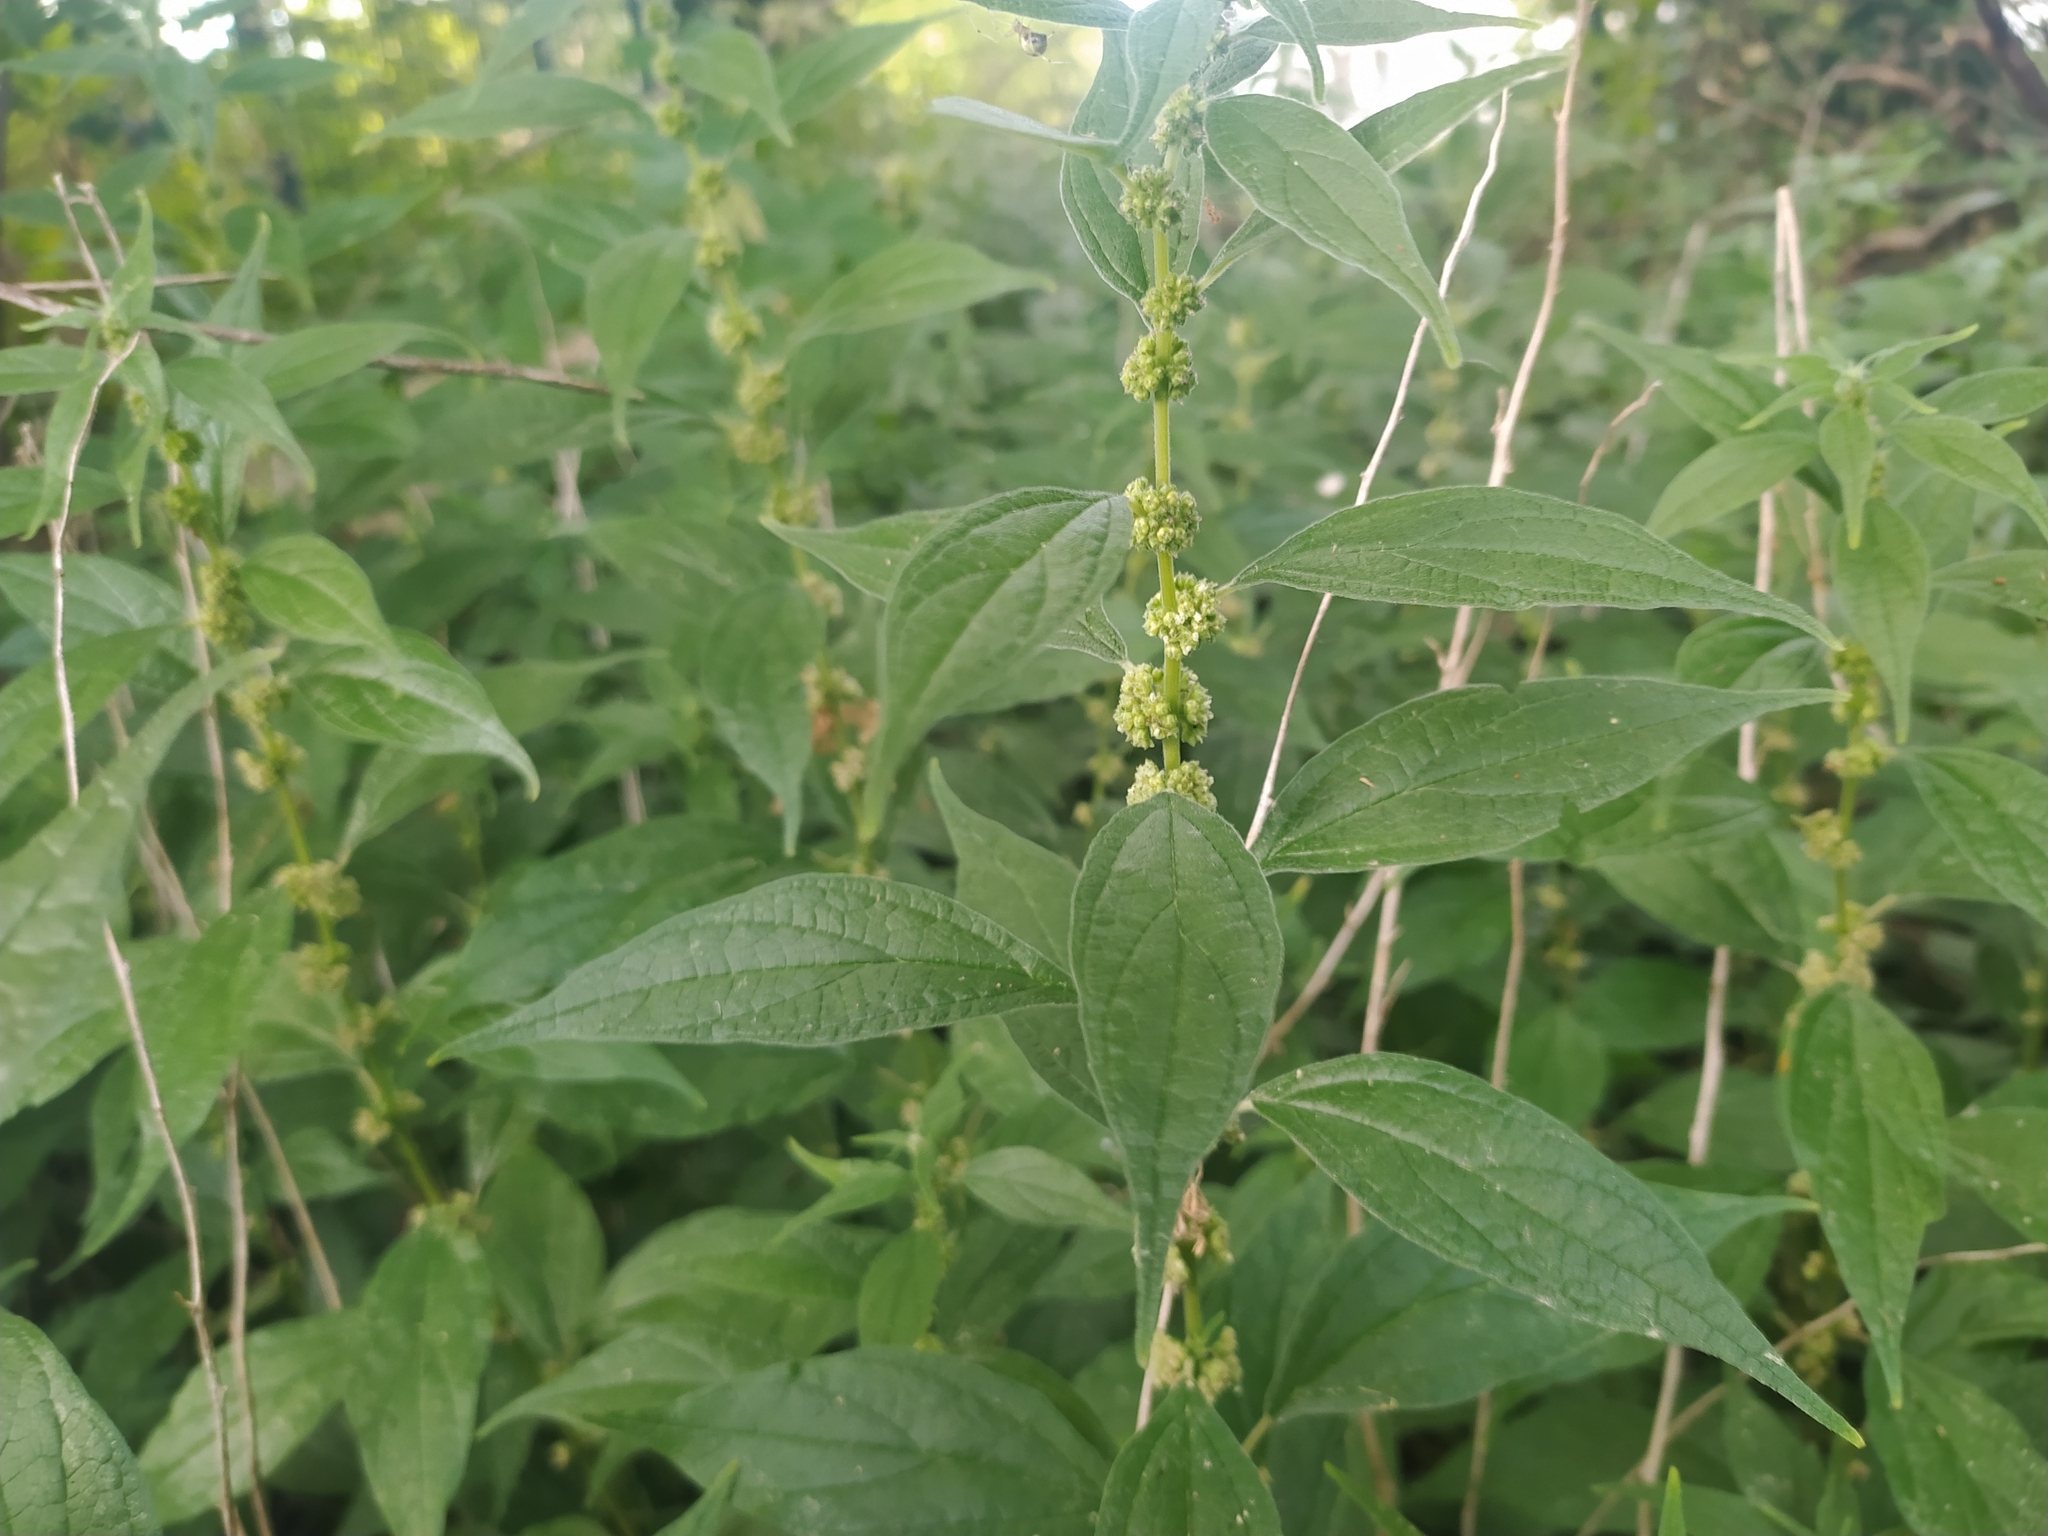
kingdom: Plantae
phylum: Tracheophyta
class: Magnoliopsida
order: Rosales
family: Urticaceae
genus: Parietaria
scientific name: Parietaria officinalis
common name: Eastern pellitory-of-the-wall
